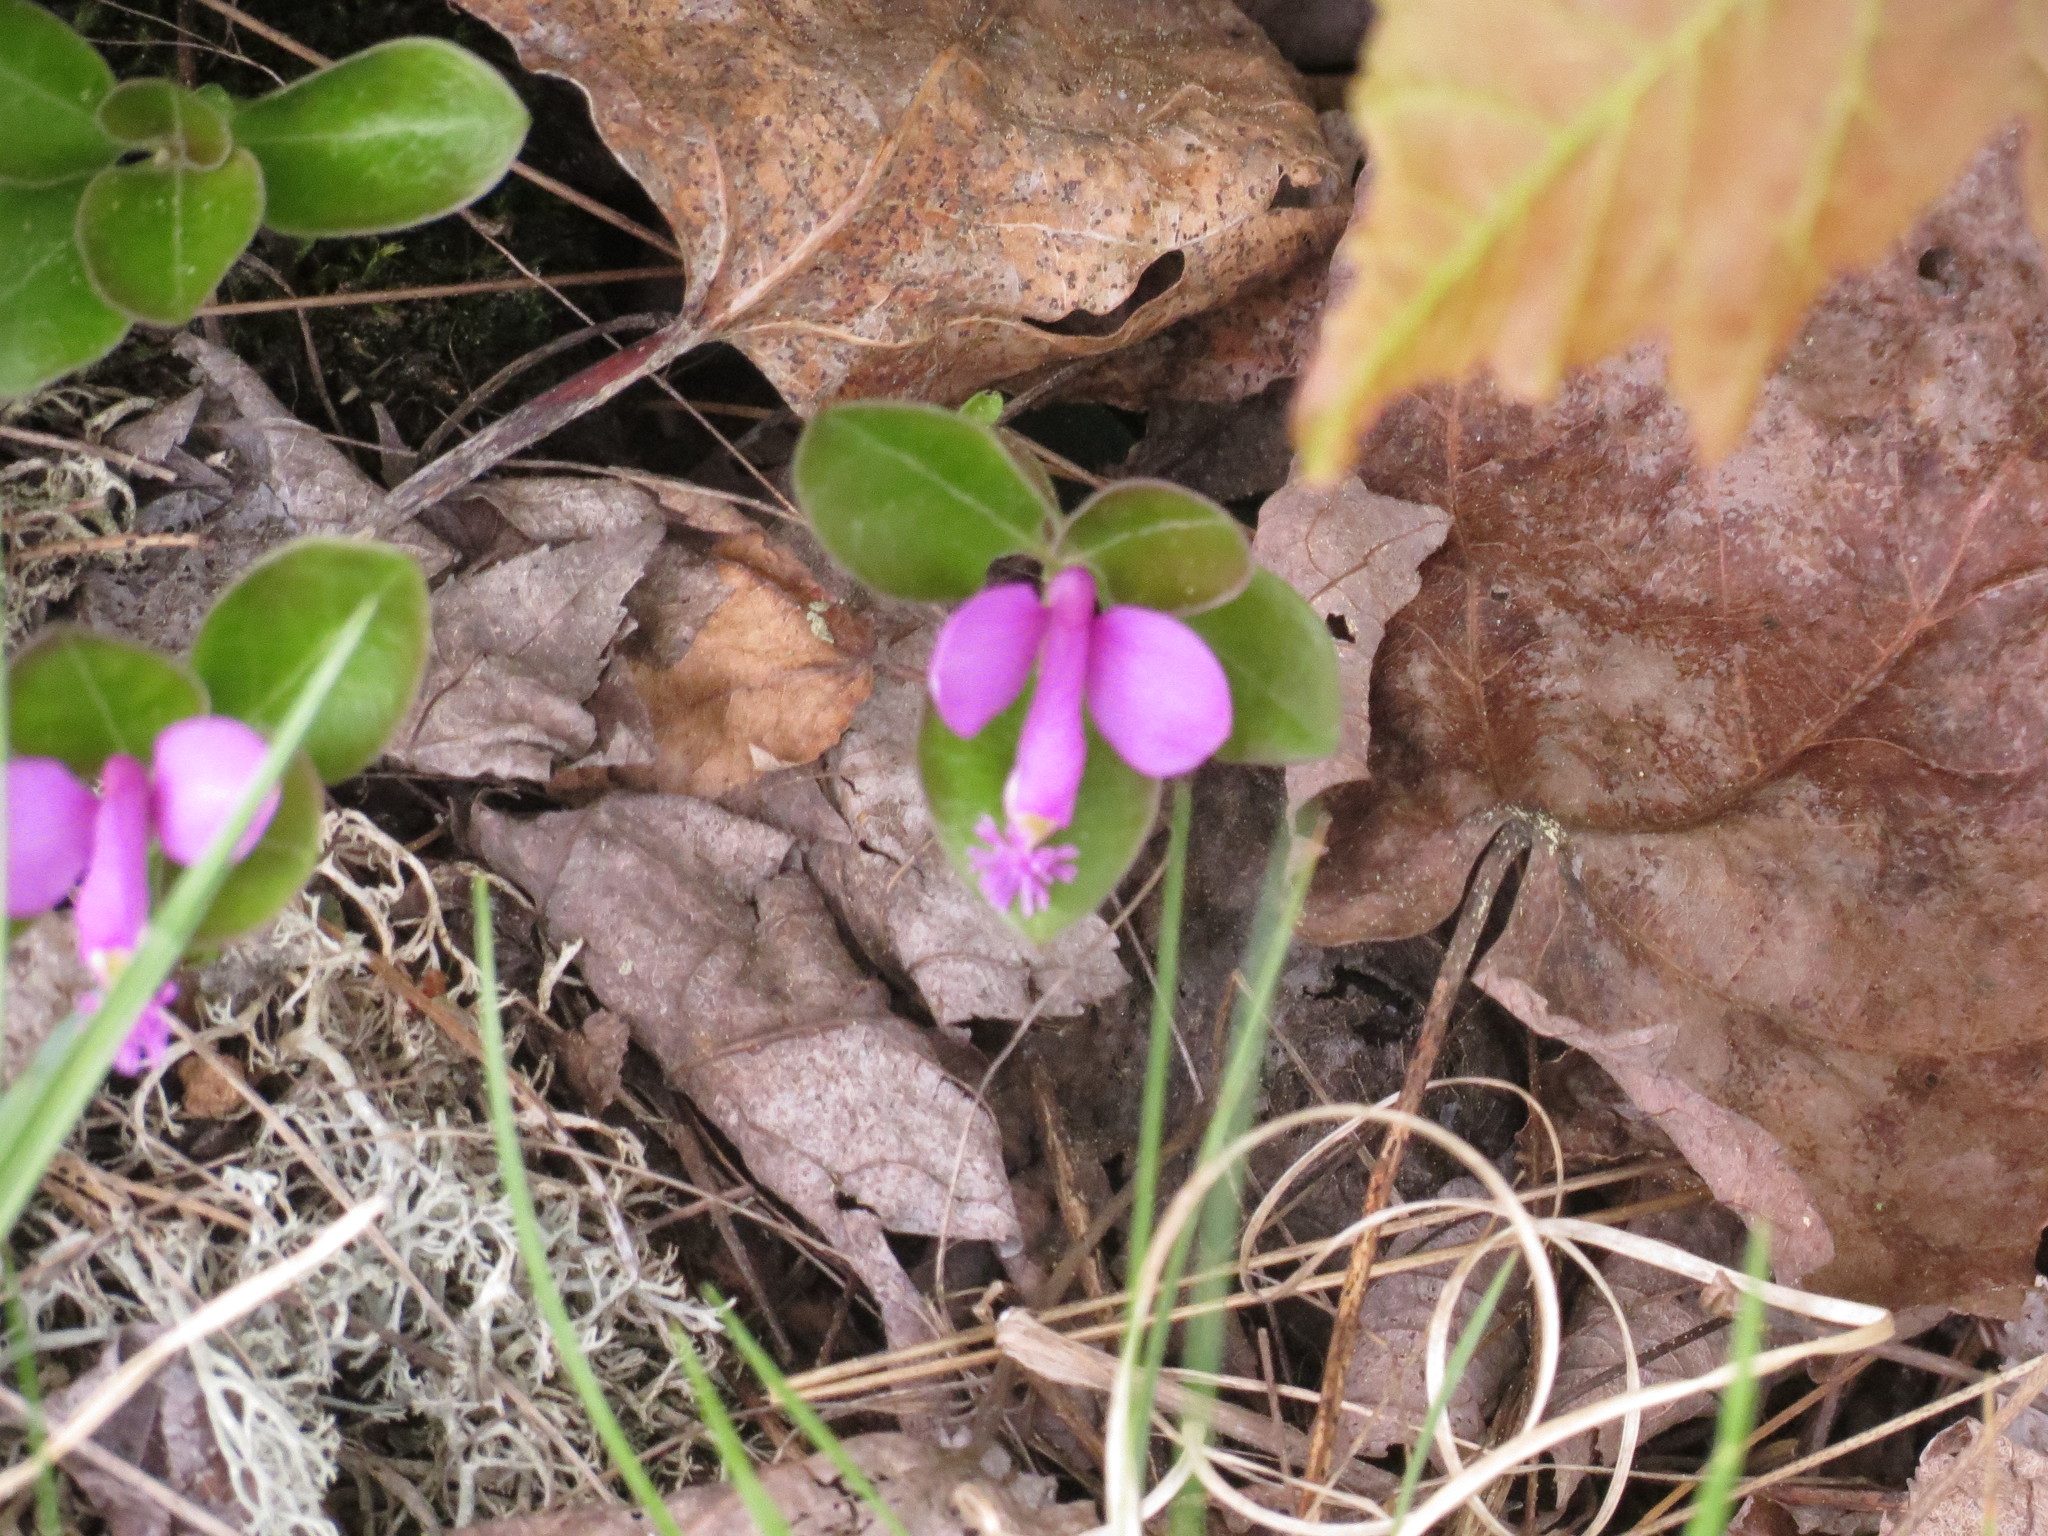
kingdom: Plantae
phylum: Tracheophyta
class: Magnoliopsida
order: Fabales
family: Polygalaceae
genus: Polygaloides
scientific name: Polygaloides paucifolia
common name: Bird-on-the-wing
